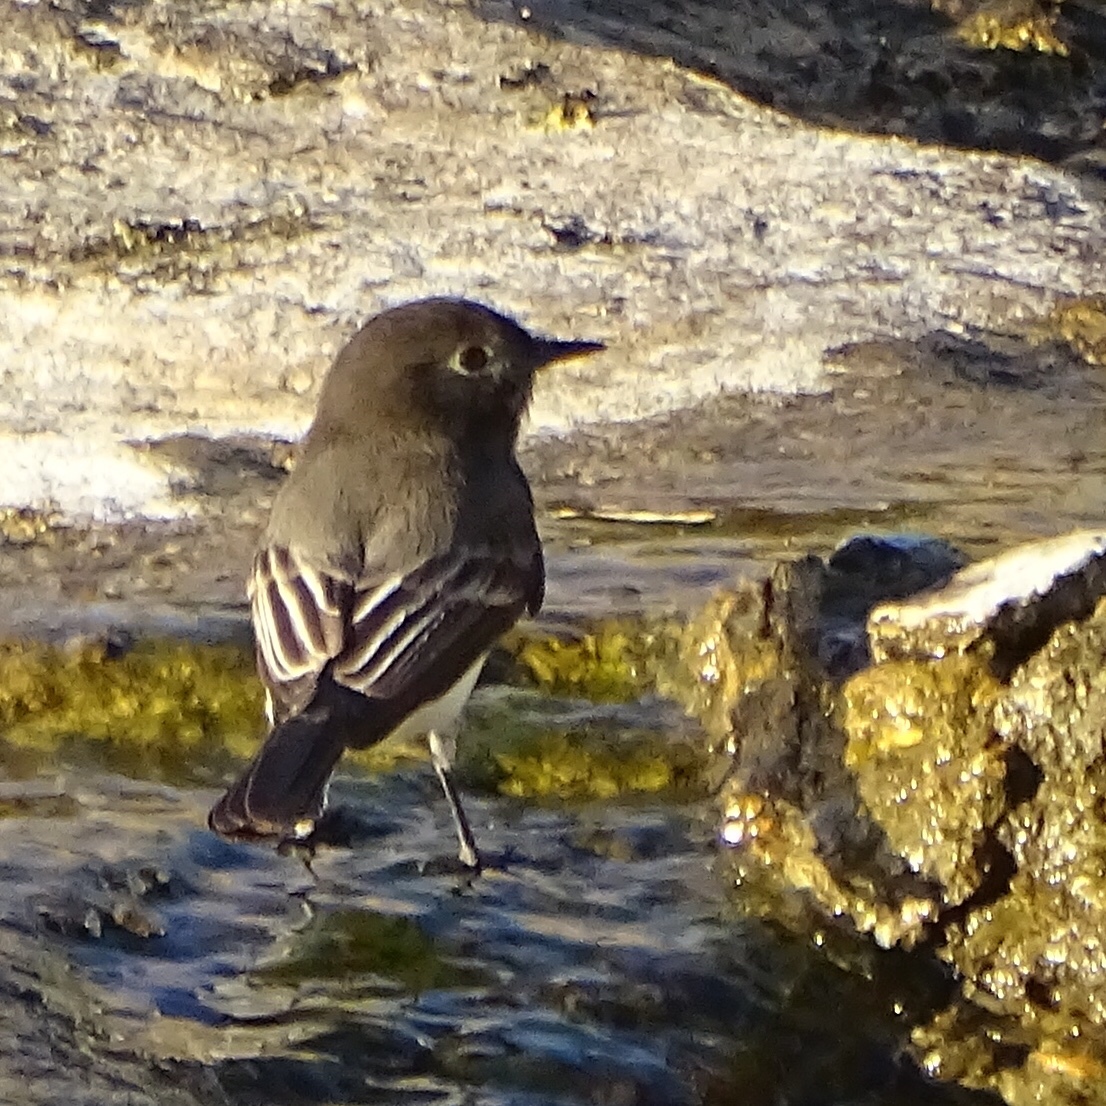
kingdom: Animalia
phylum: Chordata
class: Aves
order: Passeriformes
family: Tyrannidae
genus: Sayornis
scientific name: Sayornis nigricans
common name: Black phoebe
